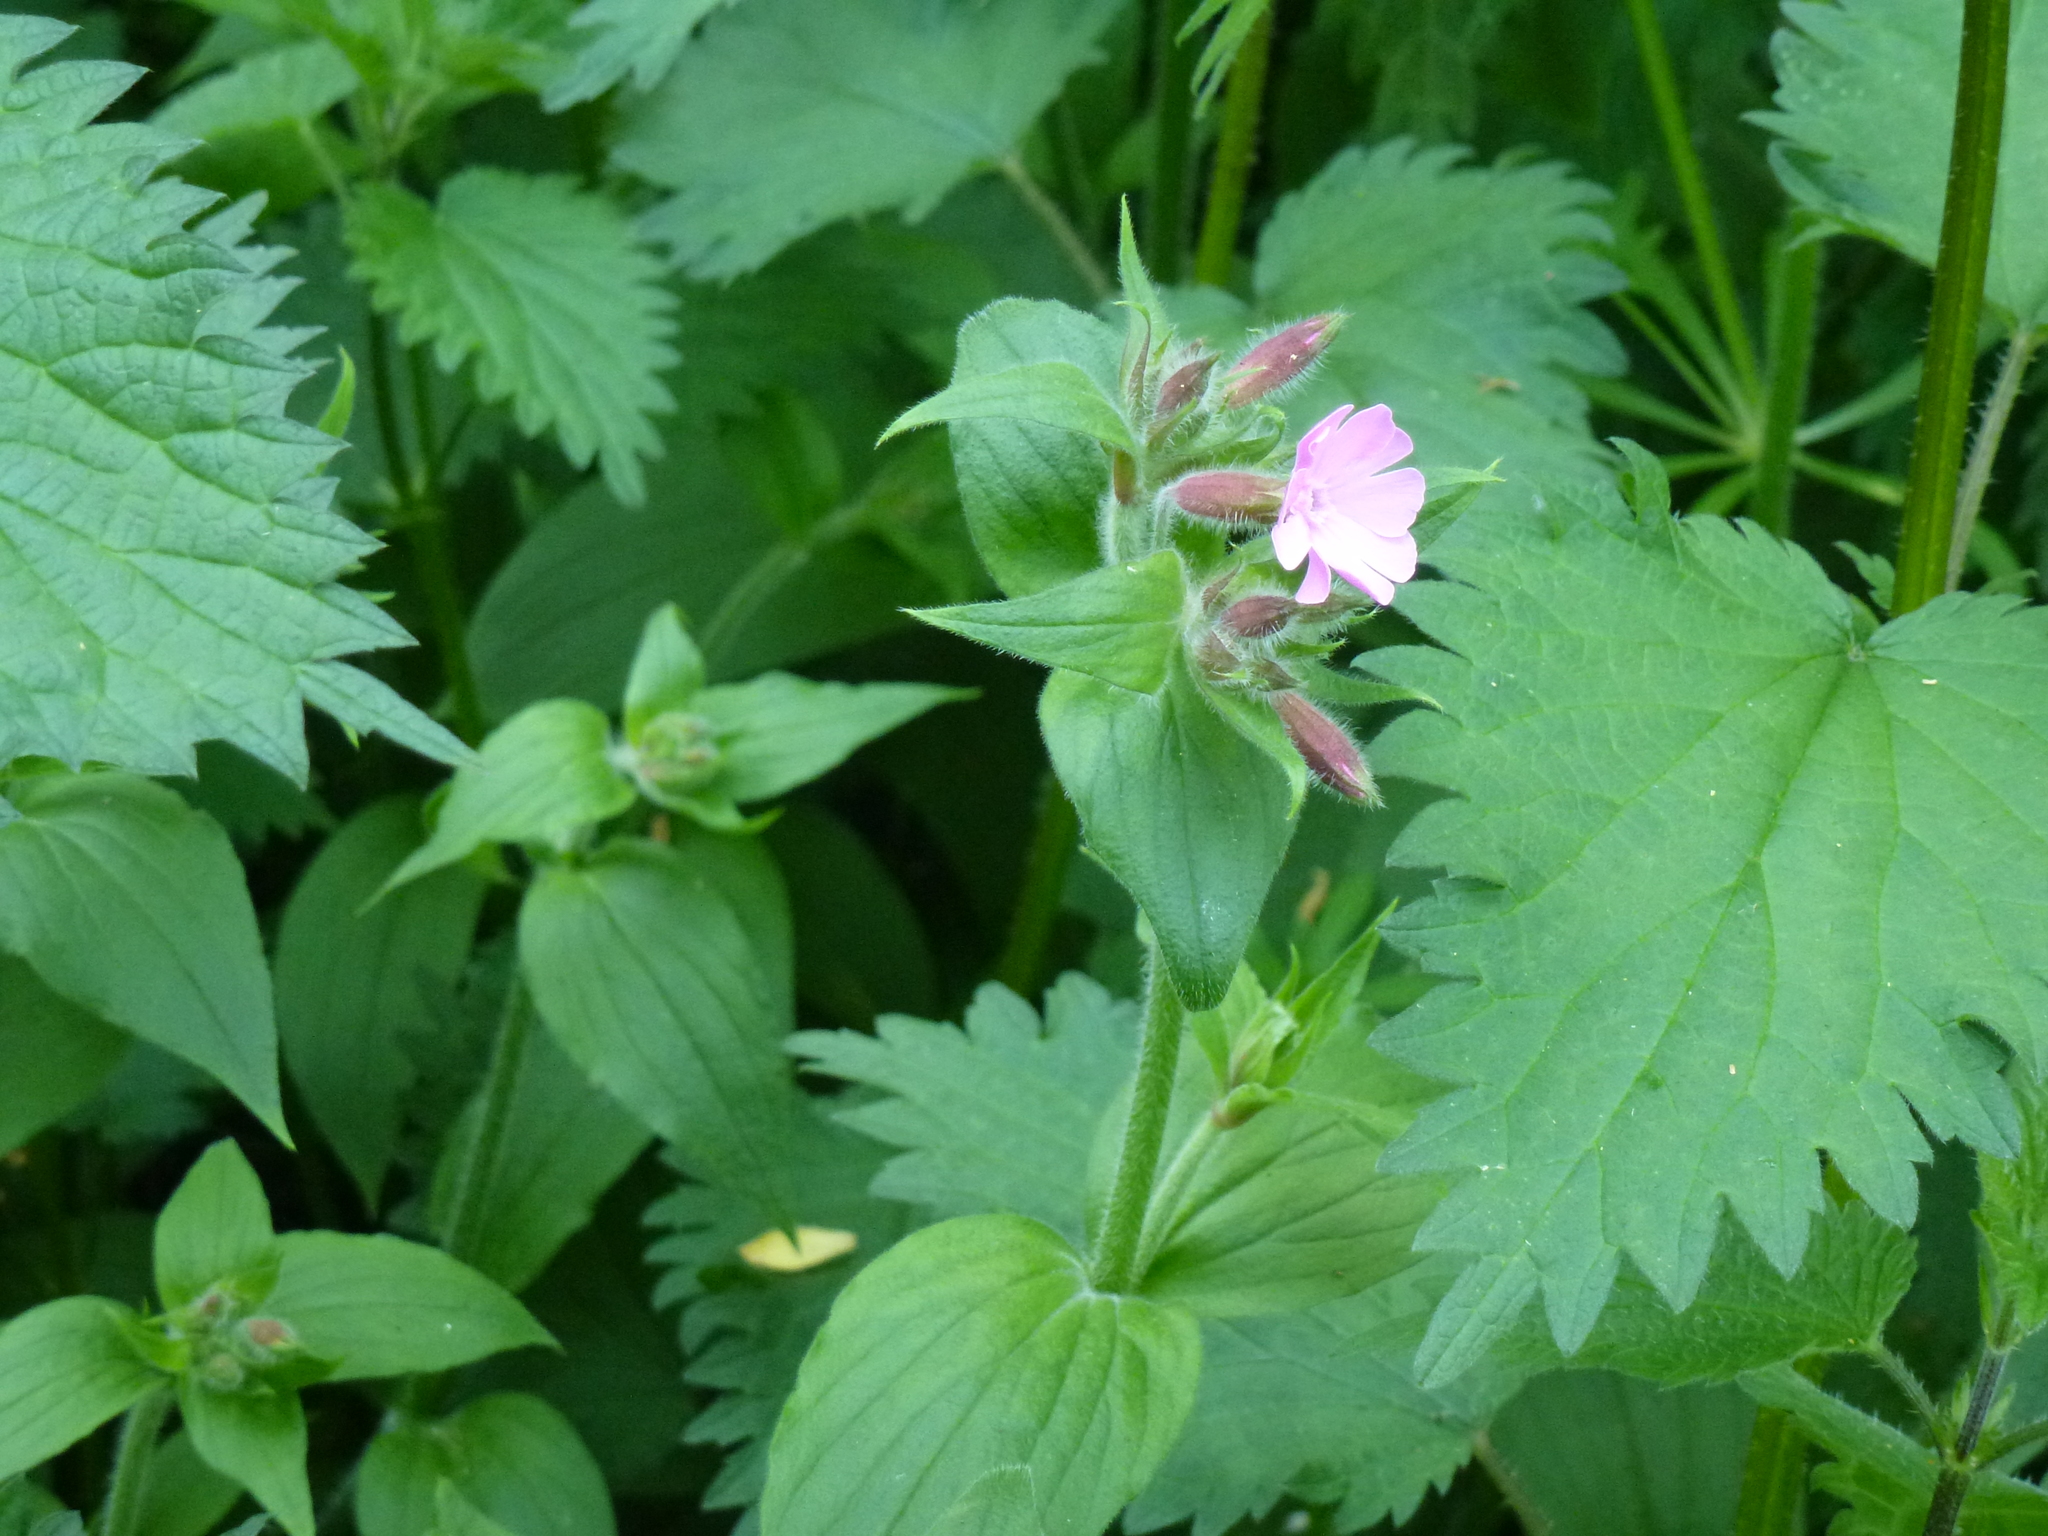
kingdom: Plantae
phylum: Tracheophyta
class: Magnoliopsida
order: Caryophyllales
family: Caryophyllaceae
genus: Silene
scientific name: Silene dioica
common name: Red campion
